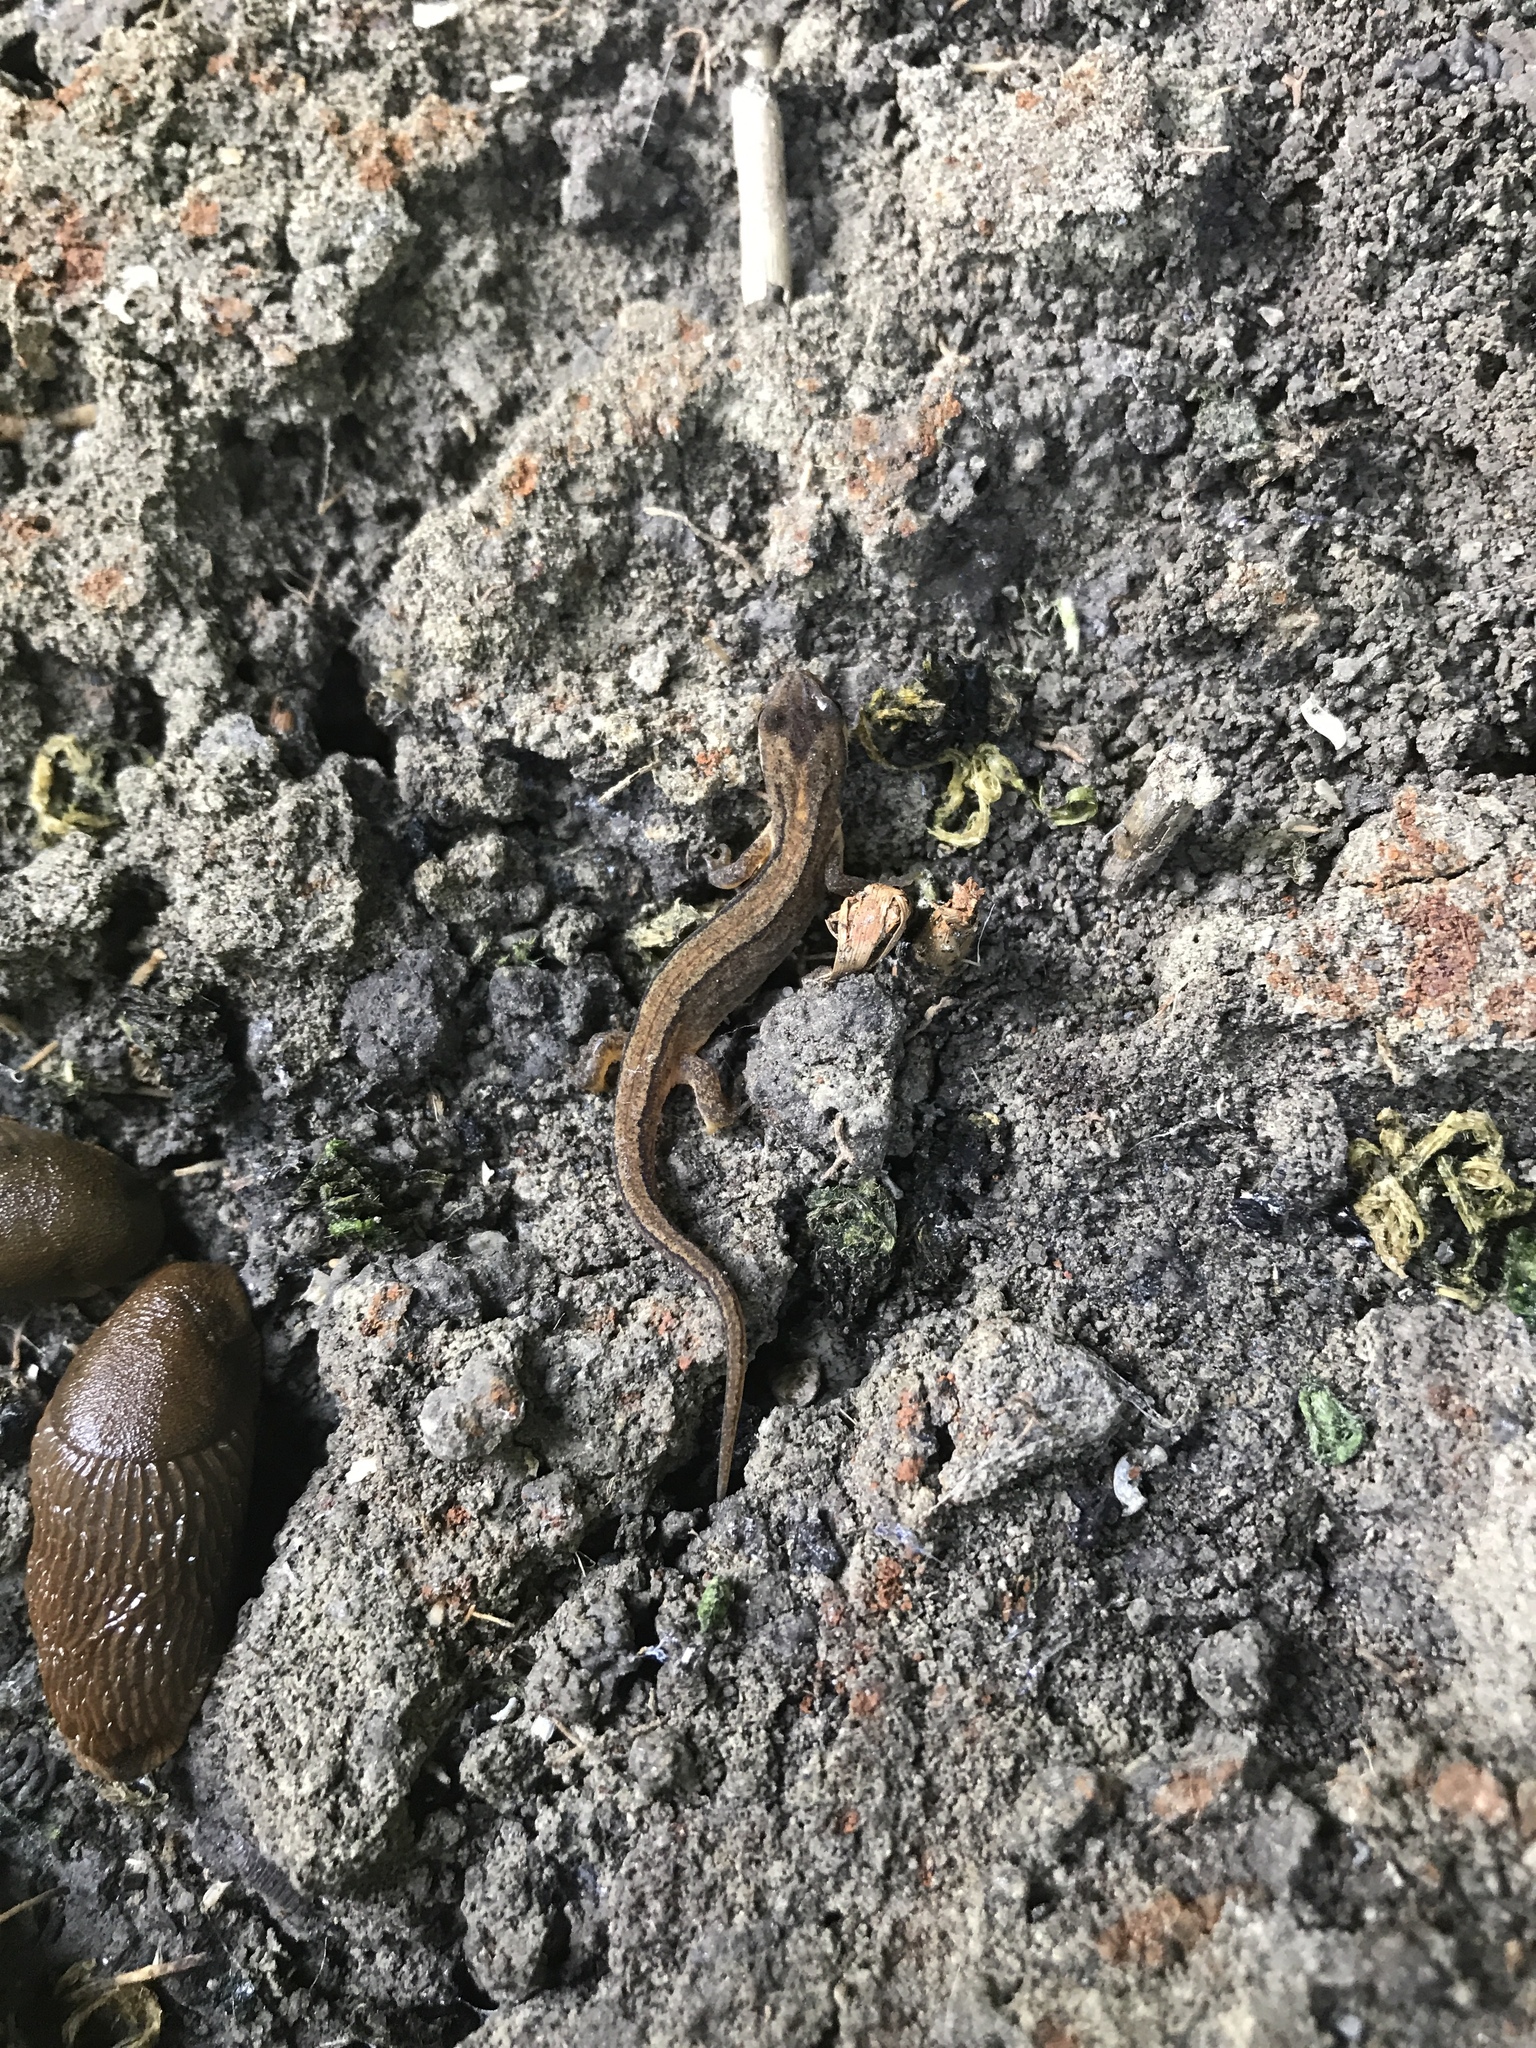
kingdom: Animalia
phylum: Chordata
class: Amphibia
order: Caudata
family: Salamandridae
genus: Lissotriton
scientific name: Lissotriton vulgaris
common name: Smooth newt
